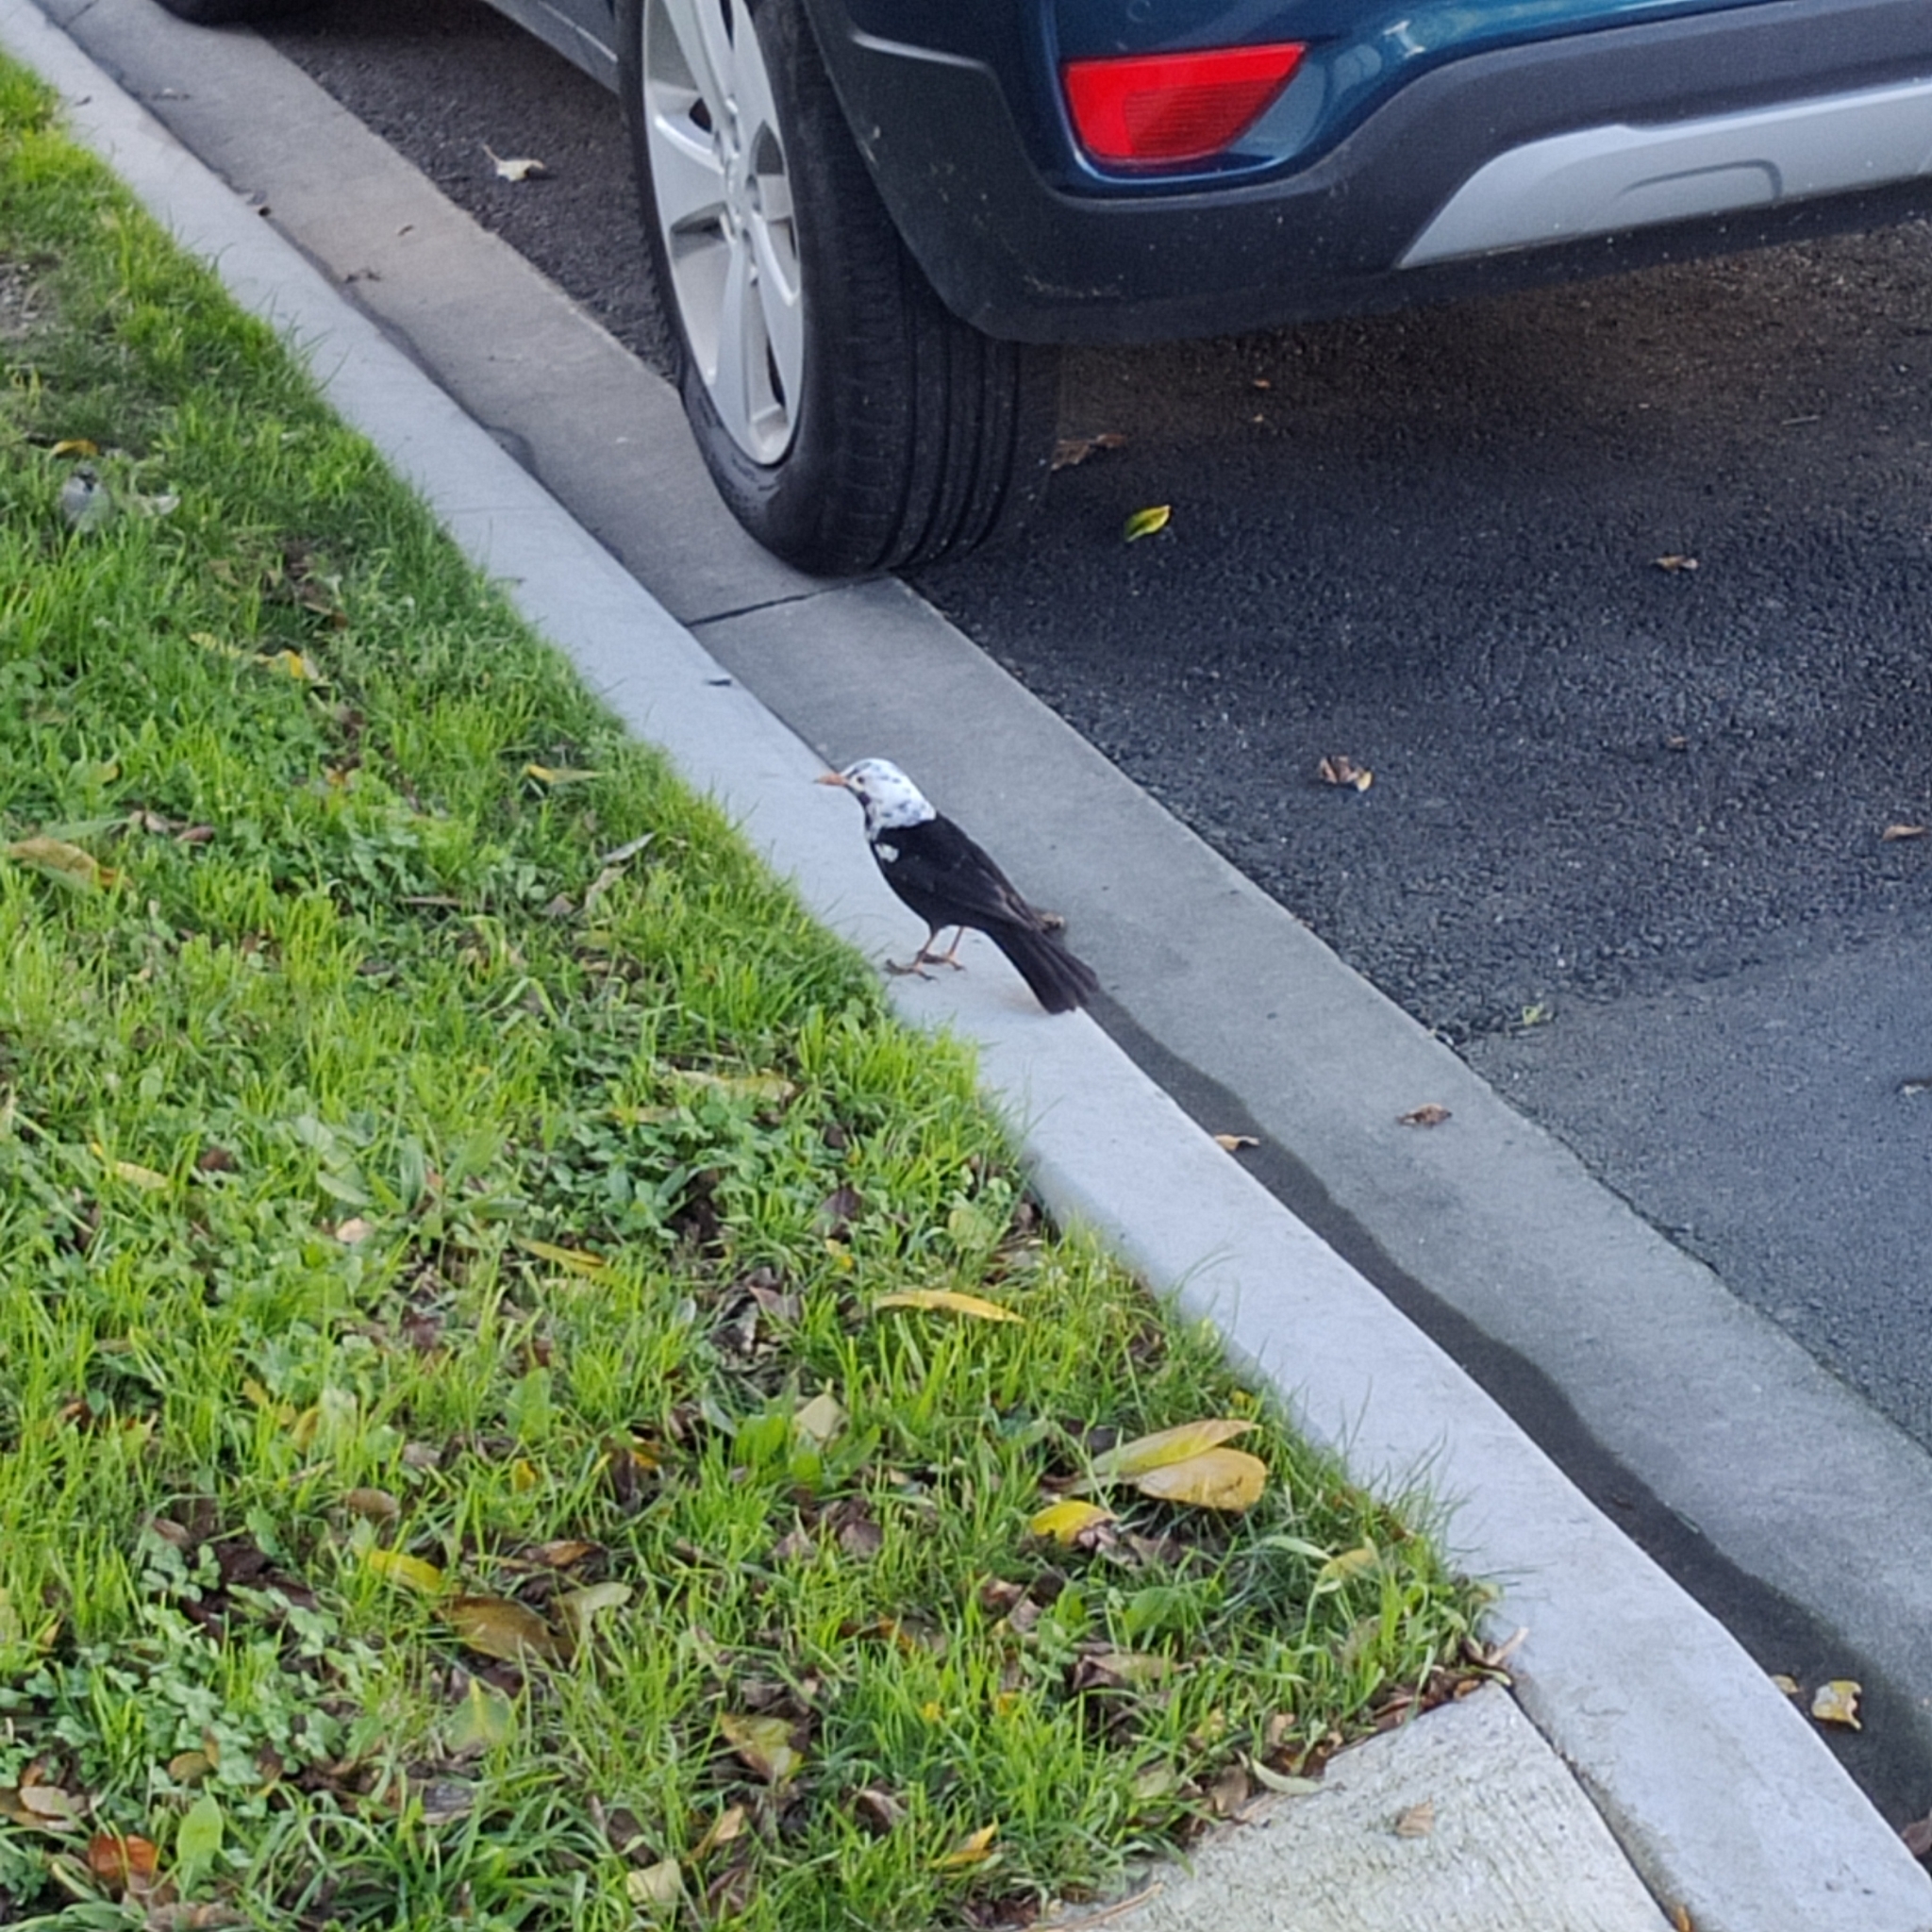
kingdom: Animalia
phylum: Chordata
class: Aves
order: Passeriformes
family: Turdidae
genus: Turdus
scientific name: Turdus merula
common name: Common blackbird
